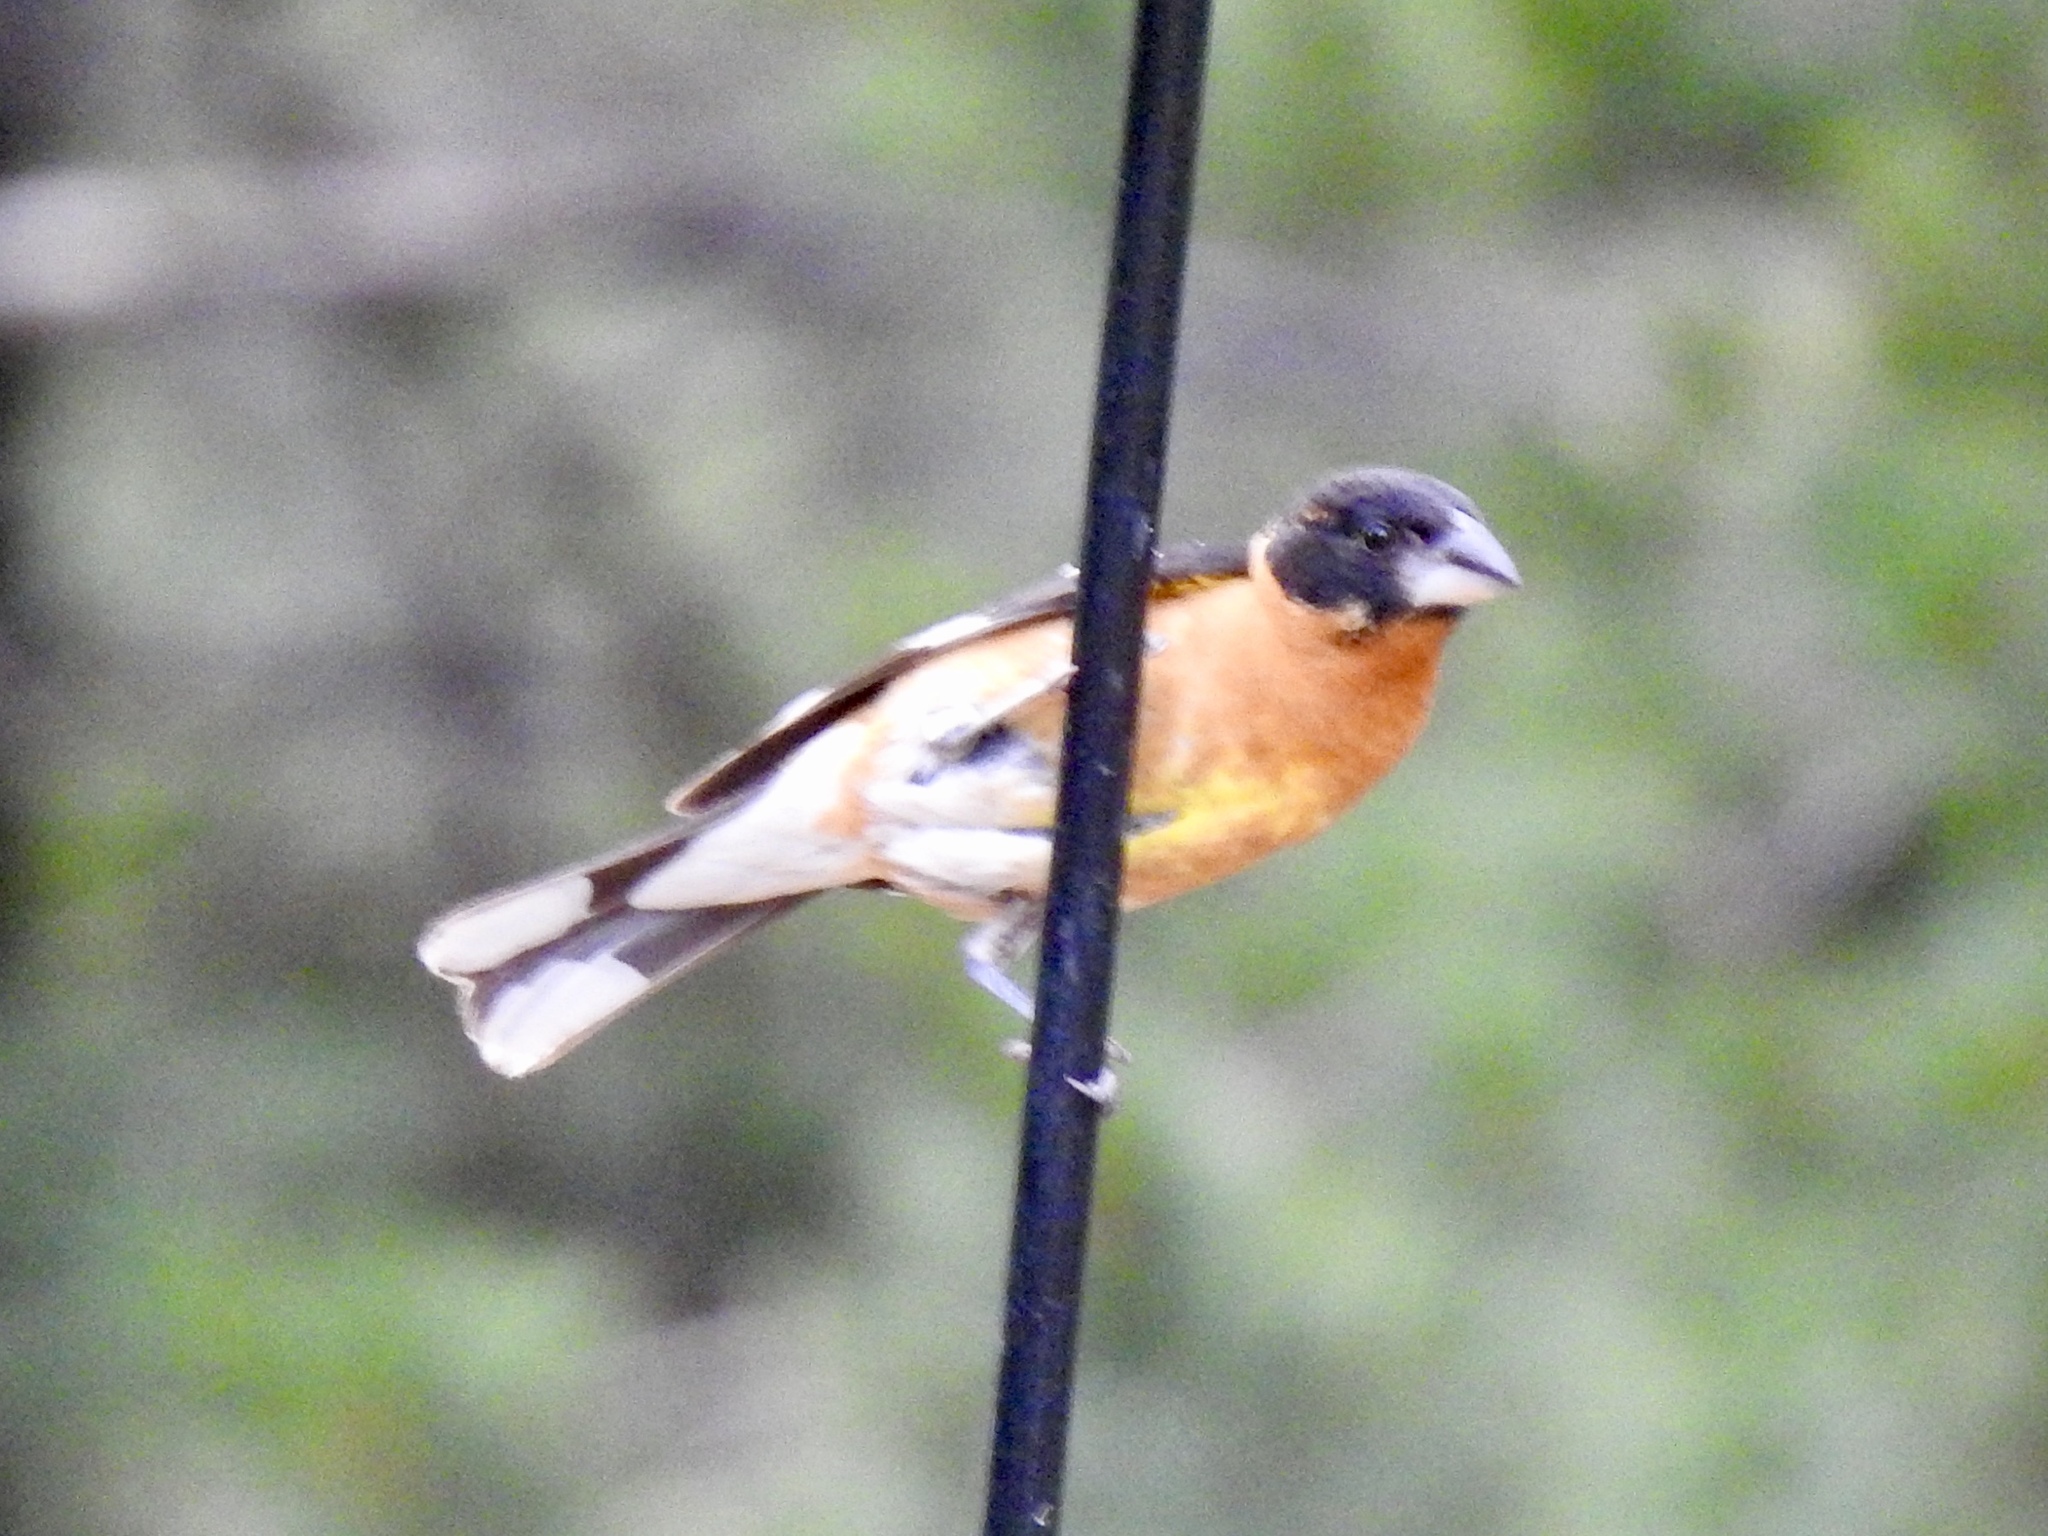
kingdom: Animalia
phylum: Chordata
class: Aves
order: Passeriformes
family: Cardinalidae
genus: Pheucticus
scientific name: Pheucticus melanocephalus
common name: Black-headed grosbeak
